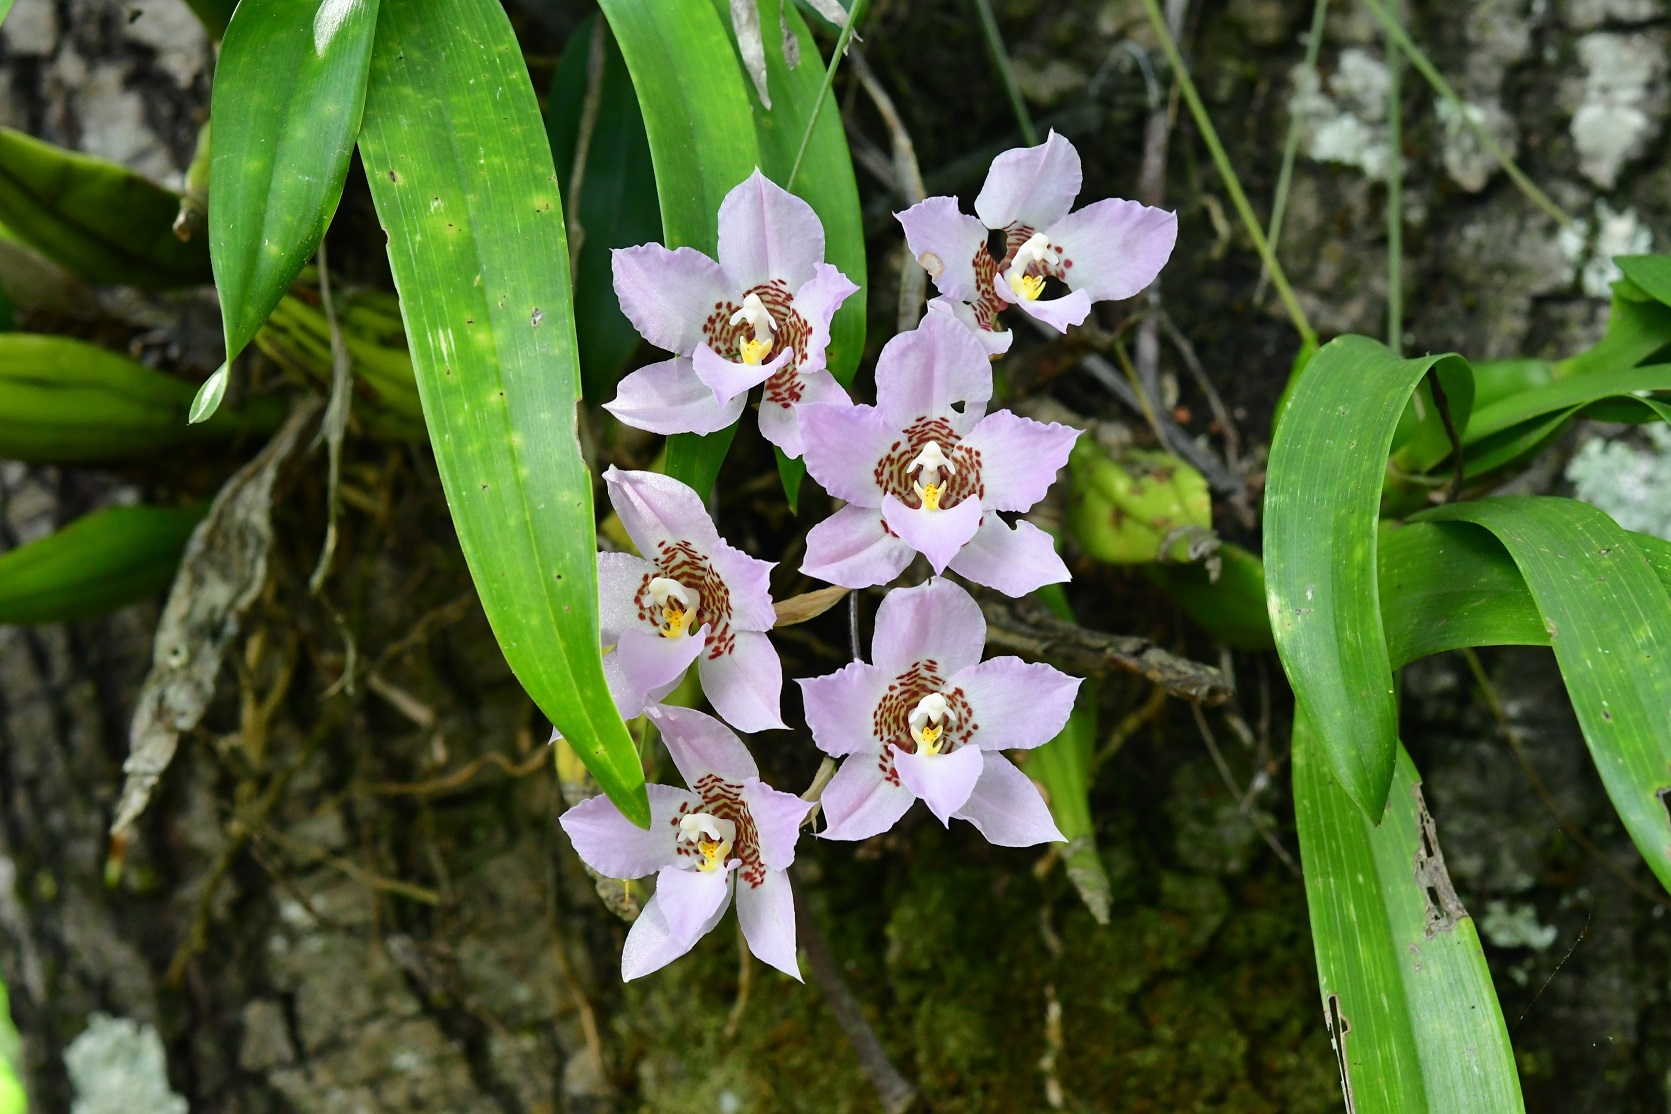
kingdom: Plantae
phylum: Tracheophyta
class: Liliopsida
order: Asparagales
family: Orchidaceae
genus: Rhynchostele
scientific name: Rhynchostele cervantesii
